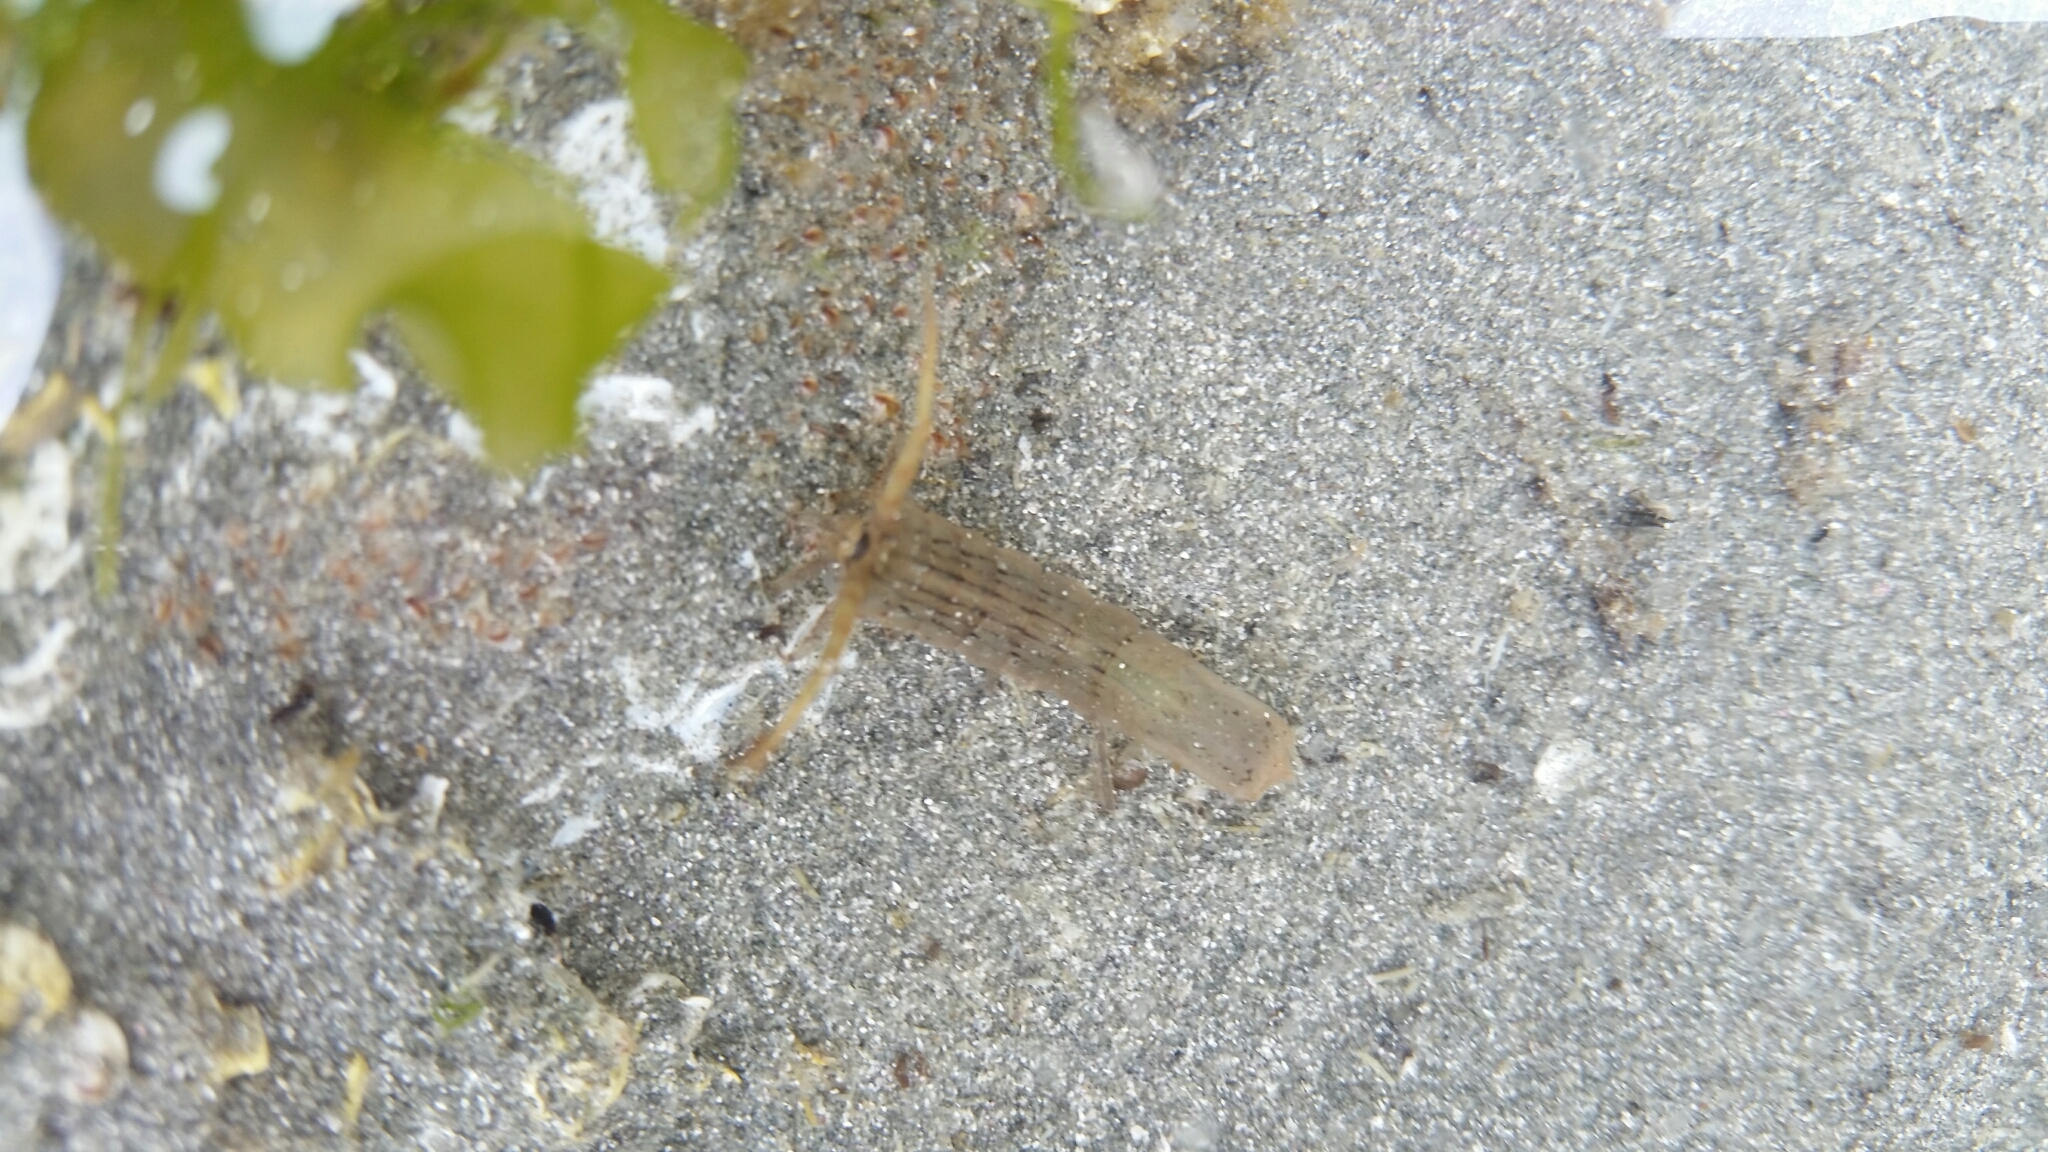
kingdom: Animalia
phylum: Arthropoda
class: Malacostraca
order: Isopoda
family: Idoteidae
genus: Idotea
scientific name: Idotea fewkesi
